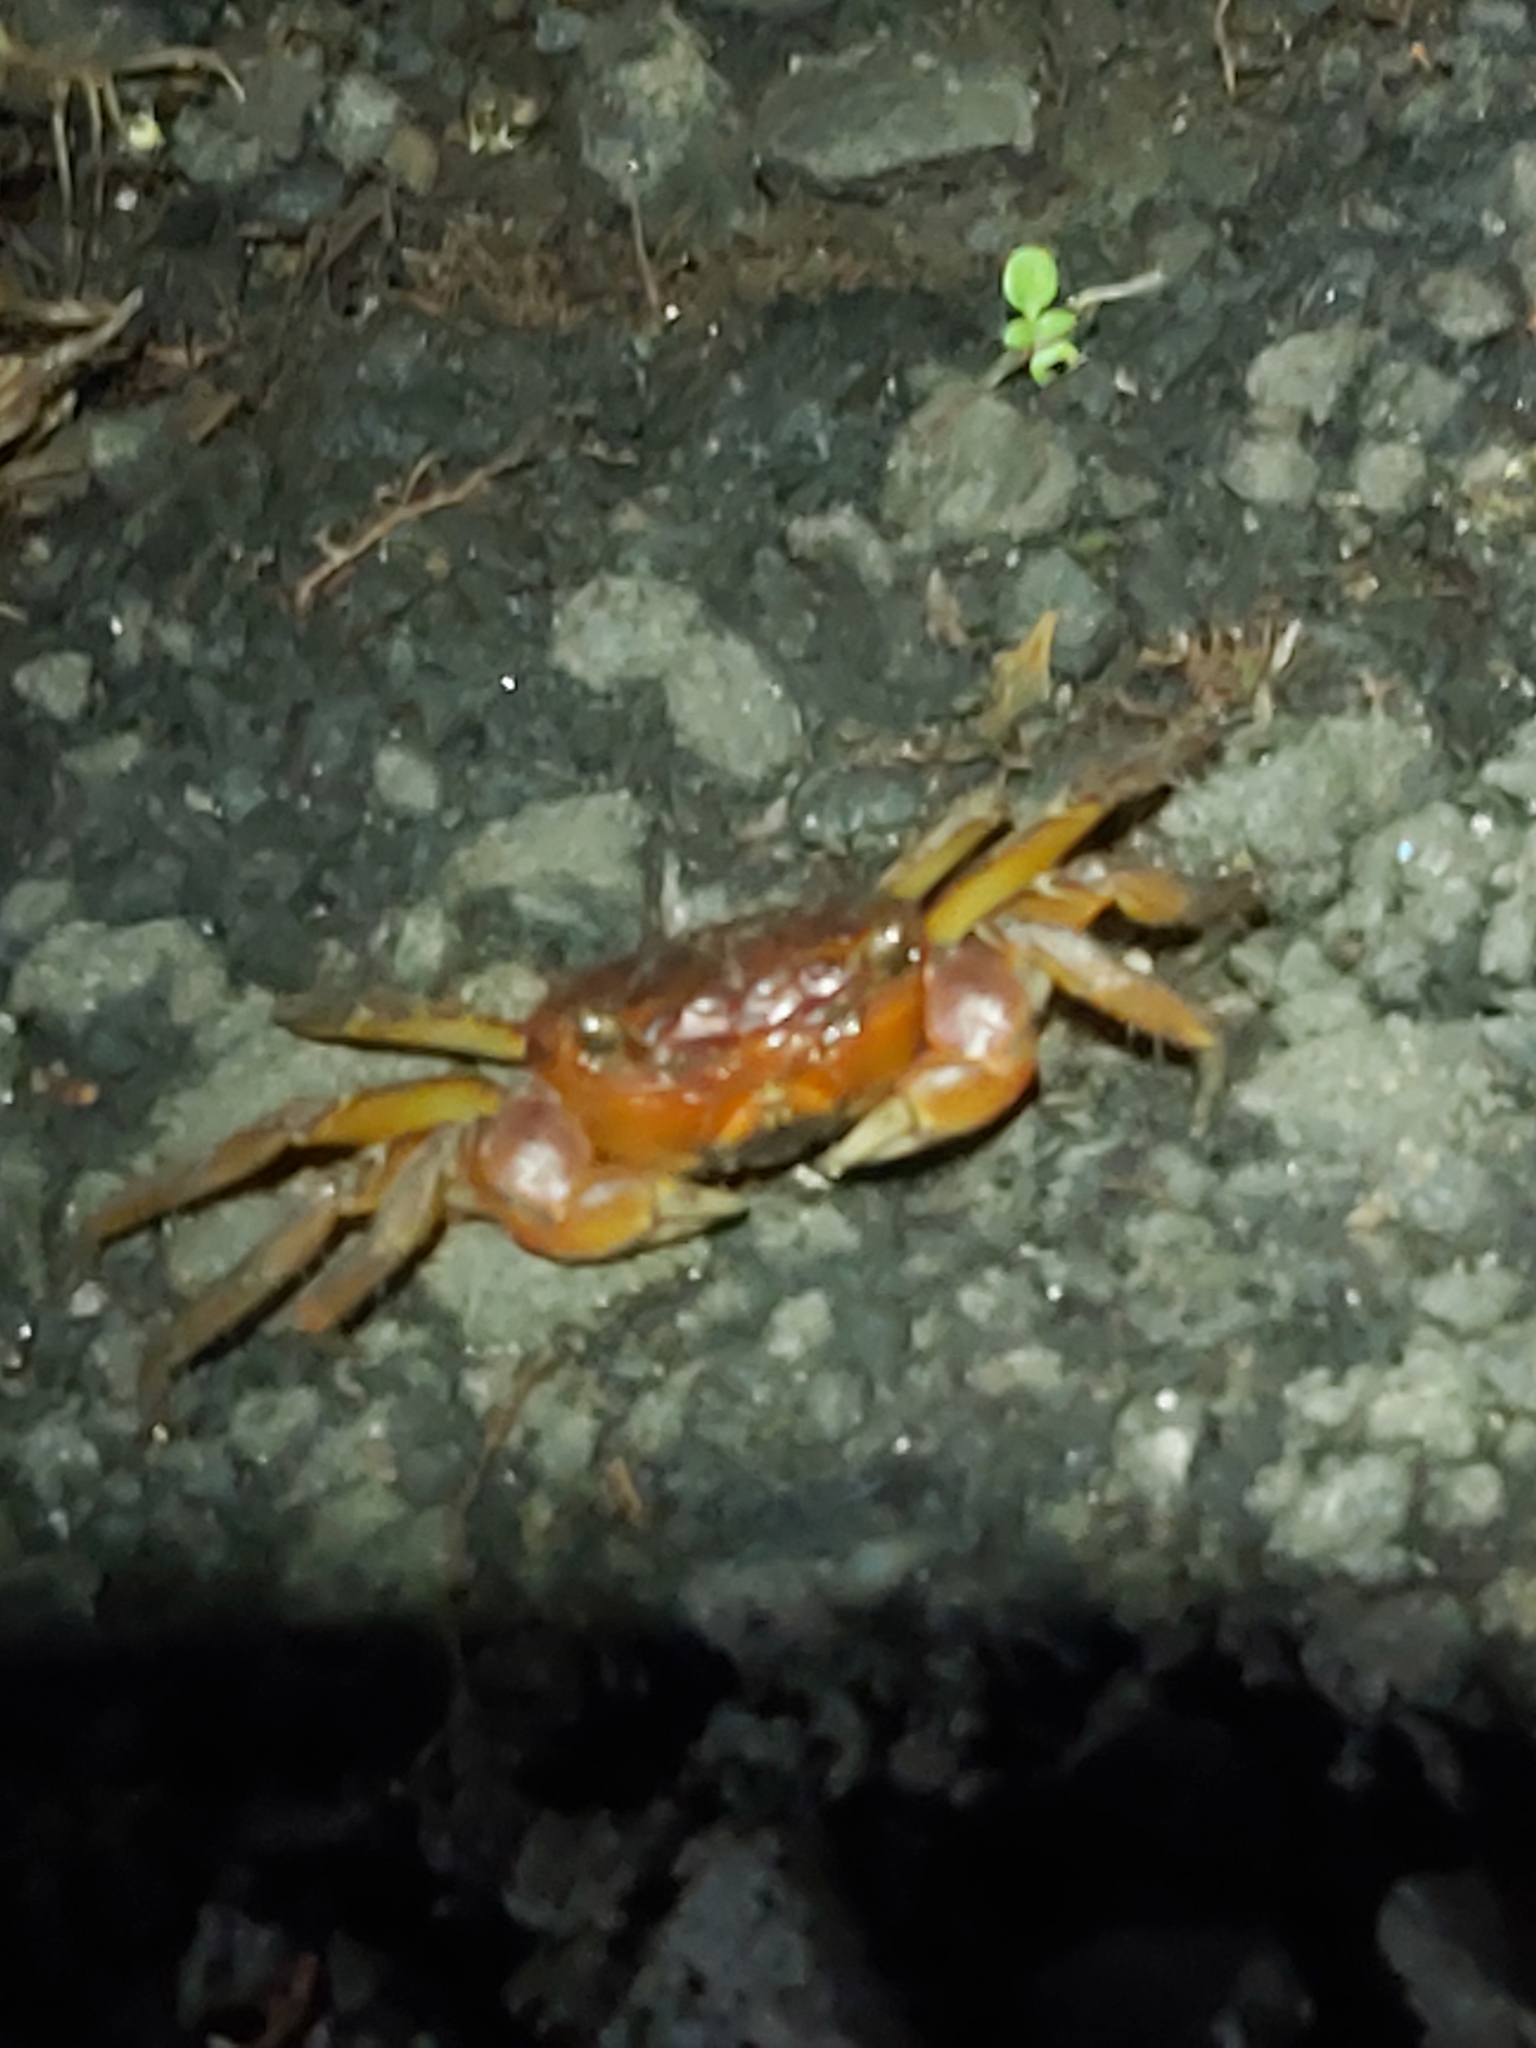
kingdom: Animalia
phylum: Arthropoda
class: Malacostraca
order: Decapoda
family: Sesarmidae
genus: Orisarma
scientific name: Orisarma intermedium
